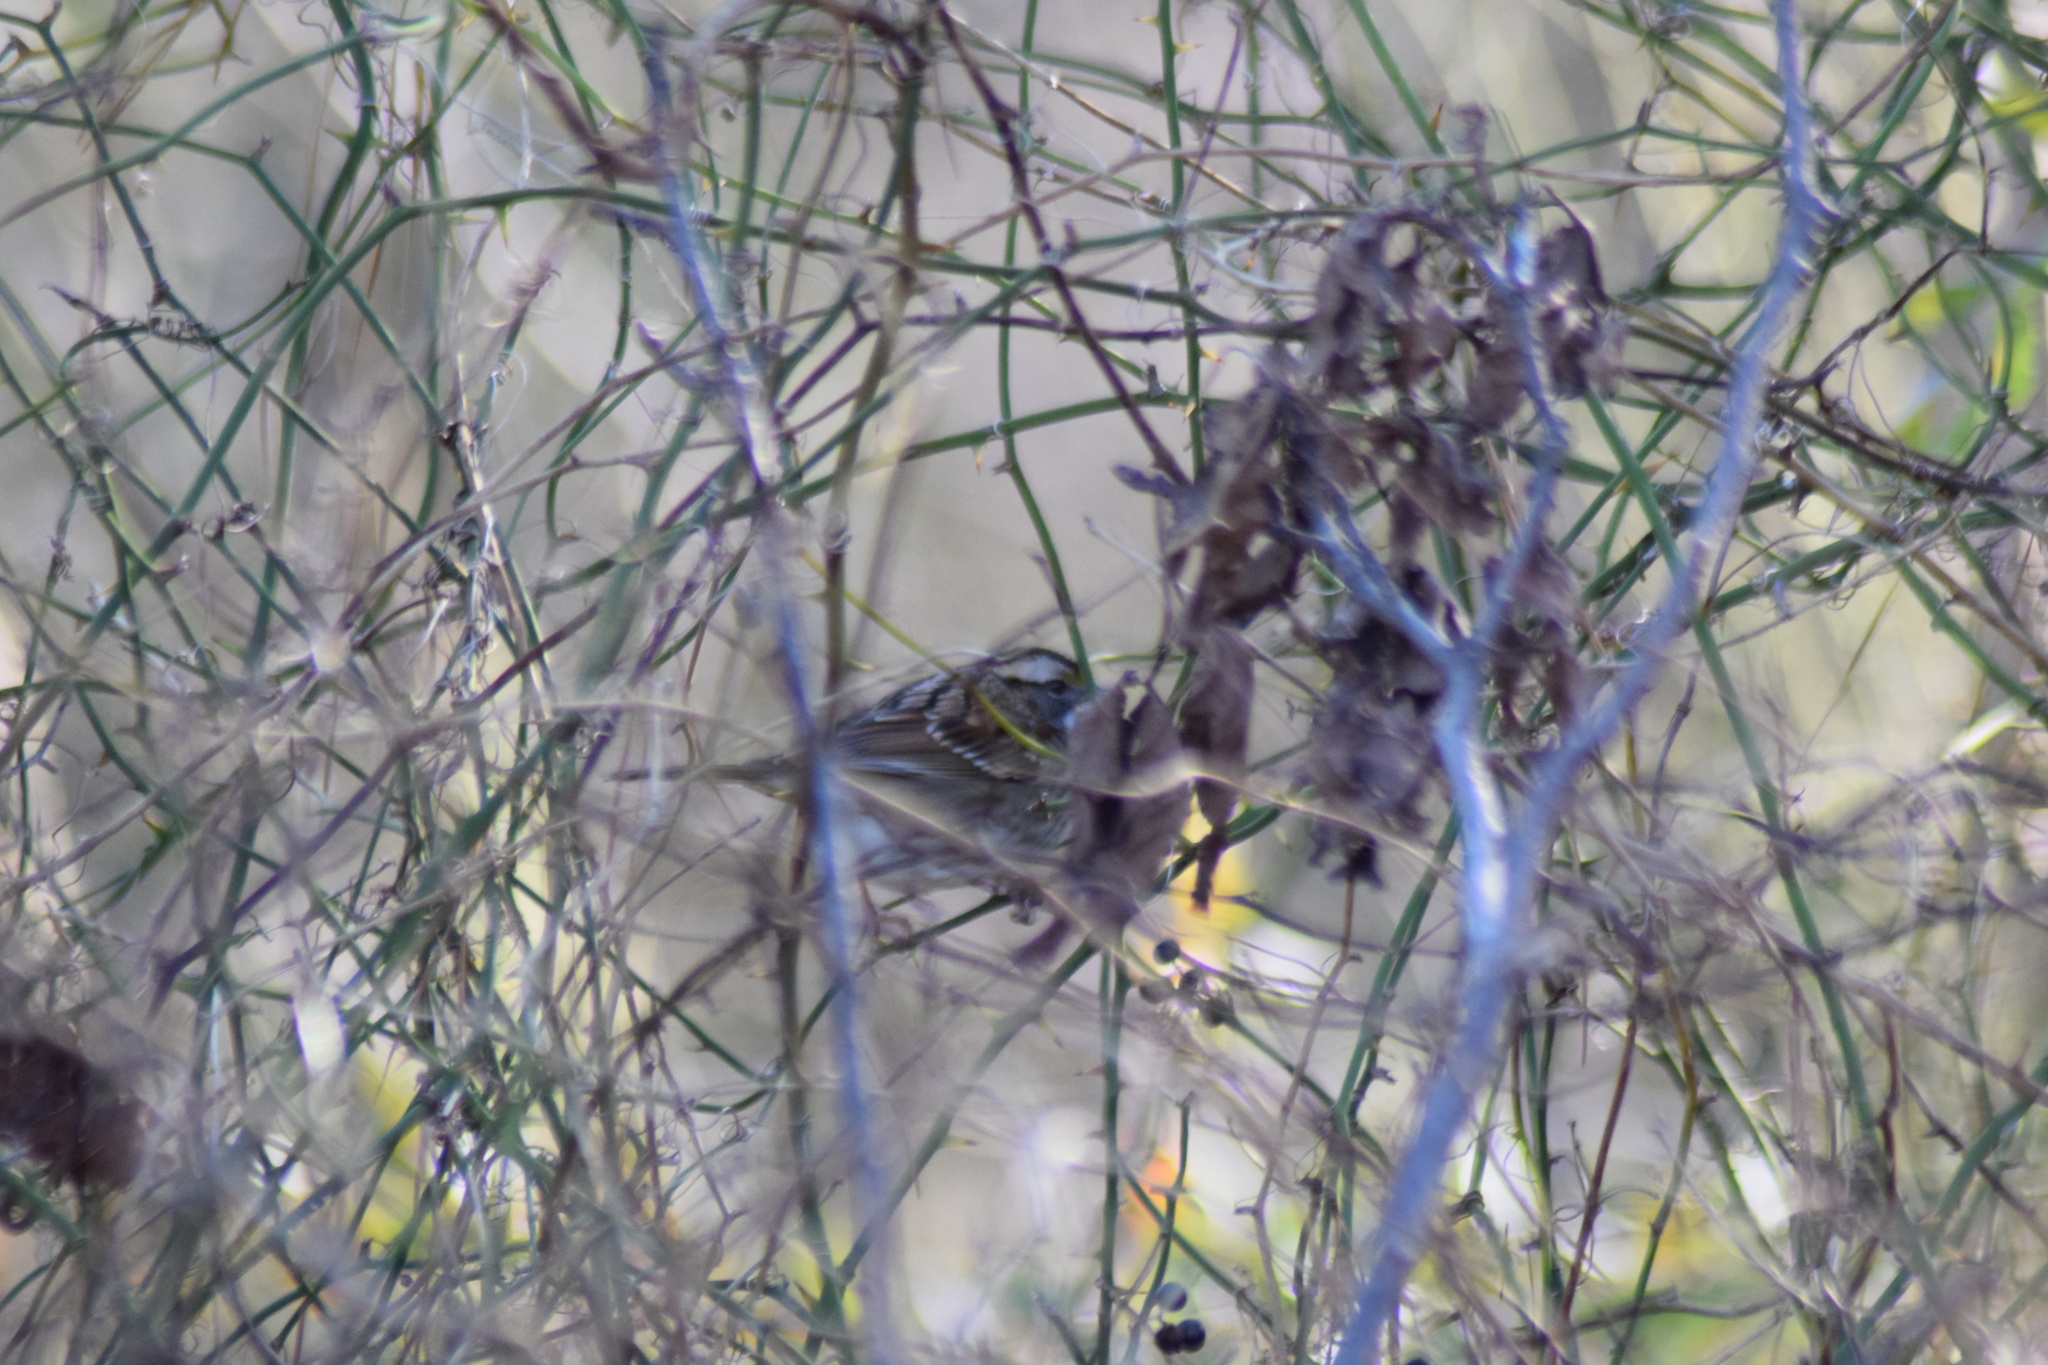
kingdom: Animalia
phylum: Chordata
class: Aves
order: Passeriformes
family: Passerellidae
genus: Zonotrichia
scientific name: Zonotrichia albicollis
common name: White-throated sparrow
